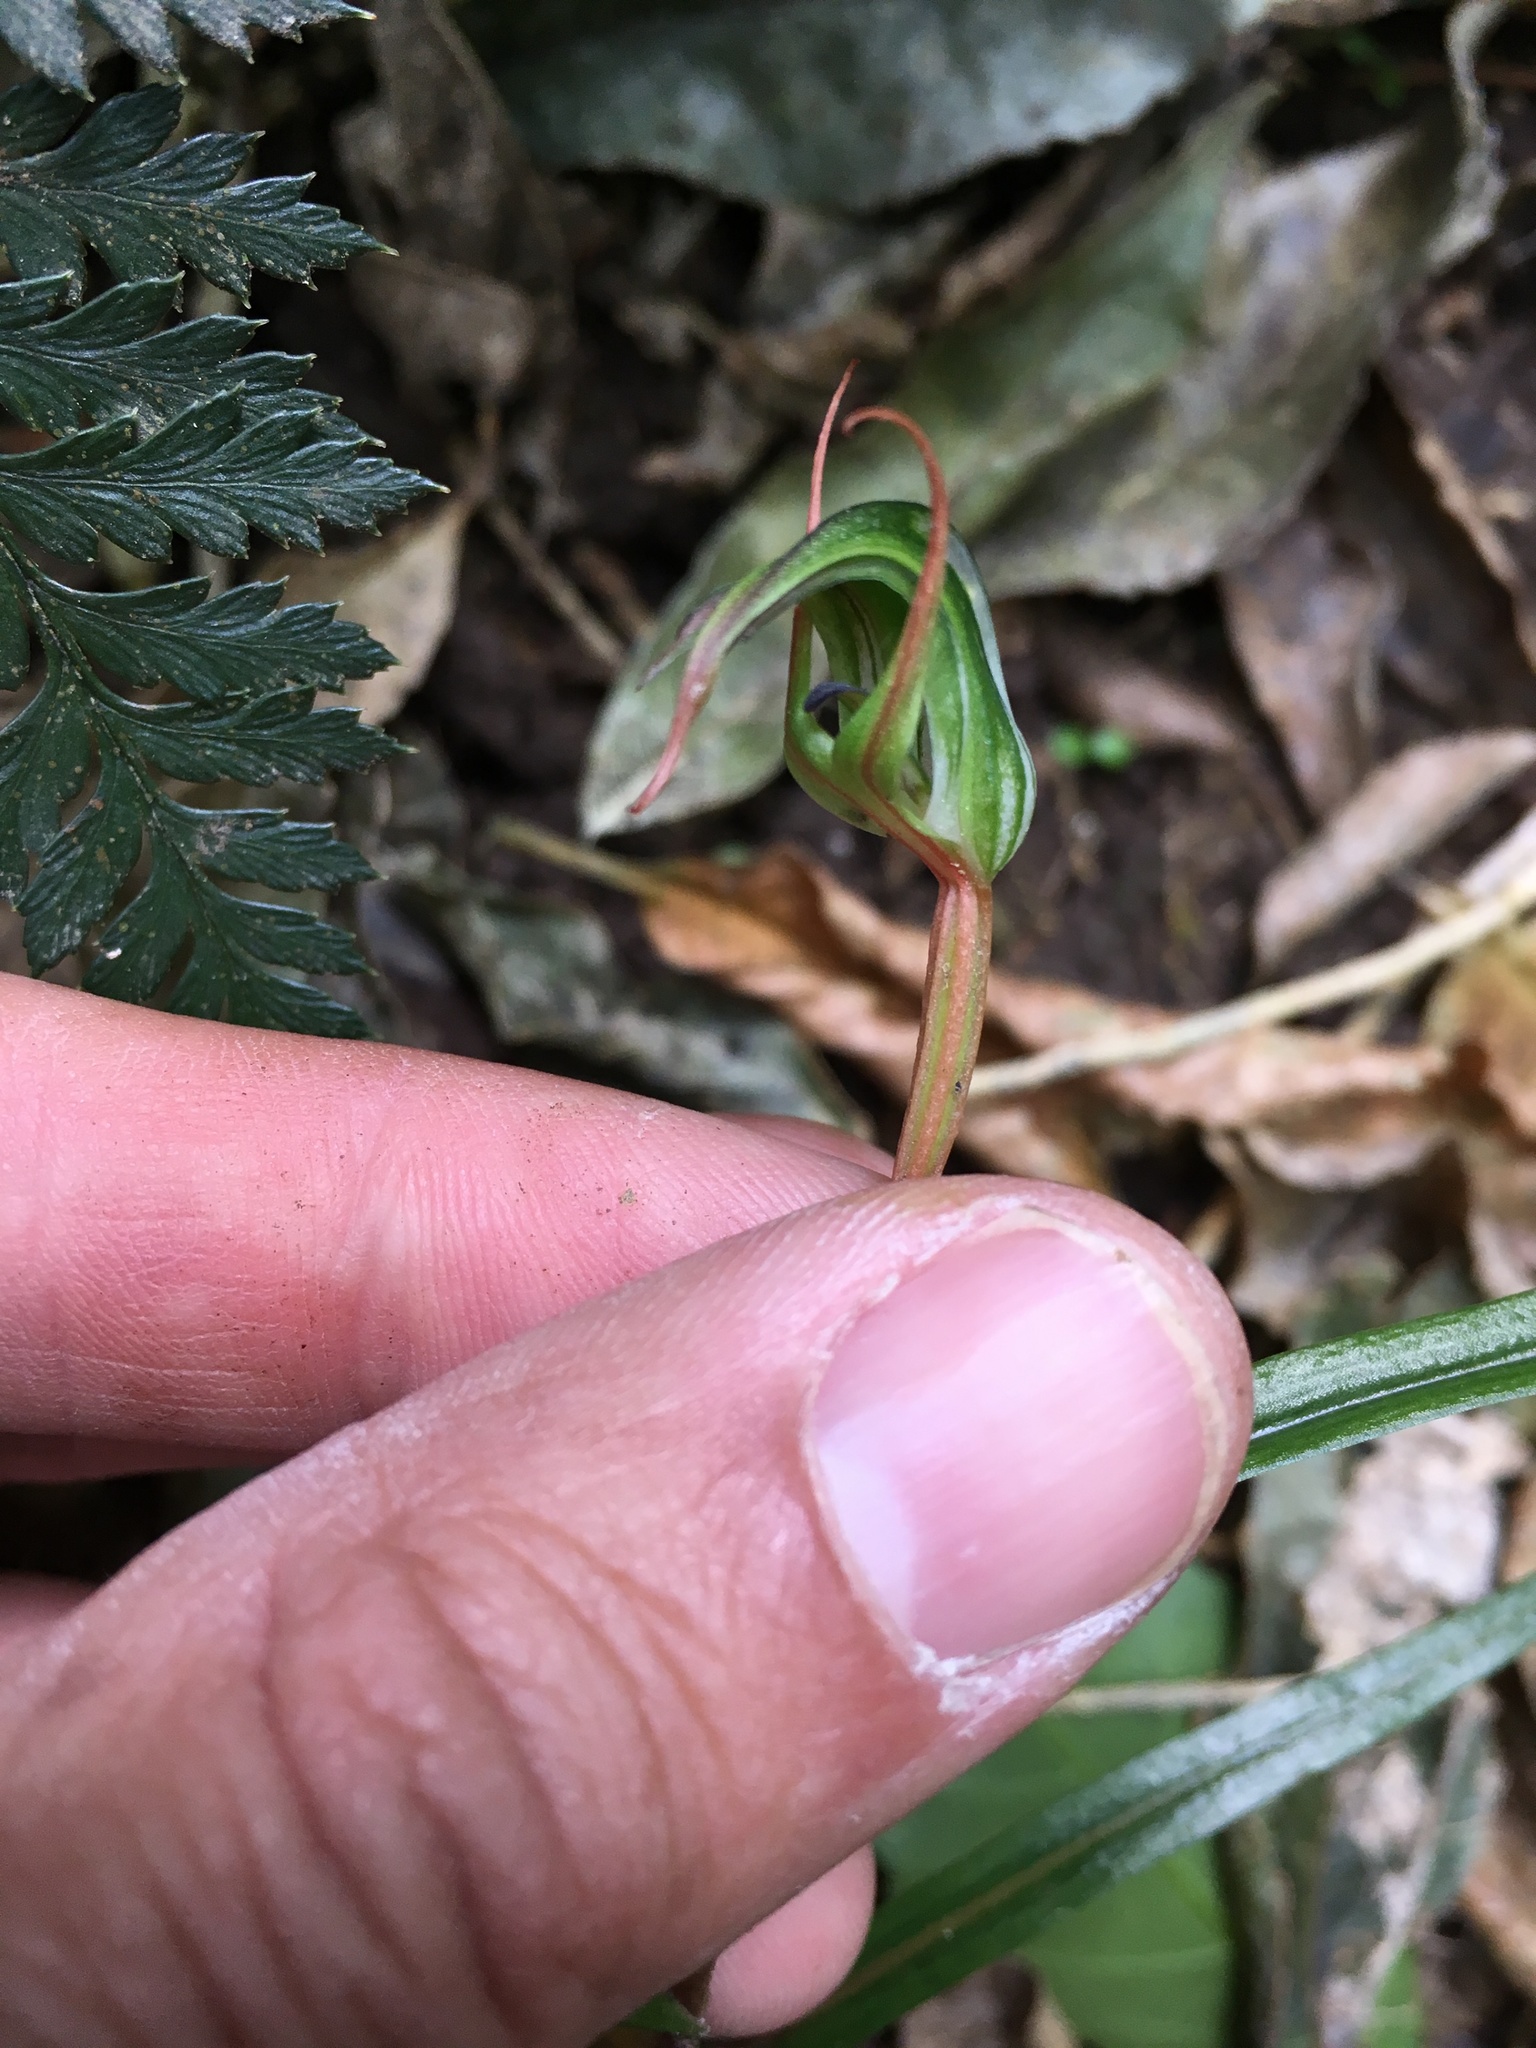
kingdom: Plantae
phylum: Tracheophyta
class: Liliopsida
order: Asparagales
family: Orchidaceae
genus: Pterostylis
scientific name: Pterostylis graminea
